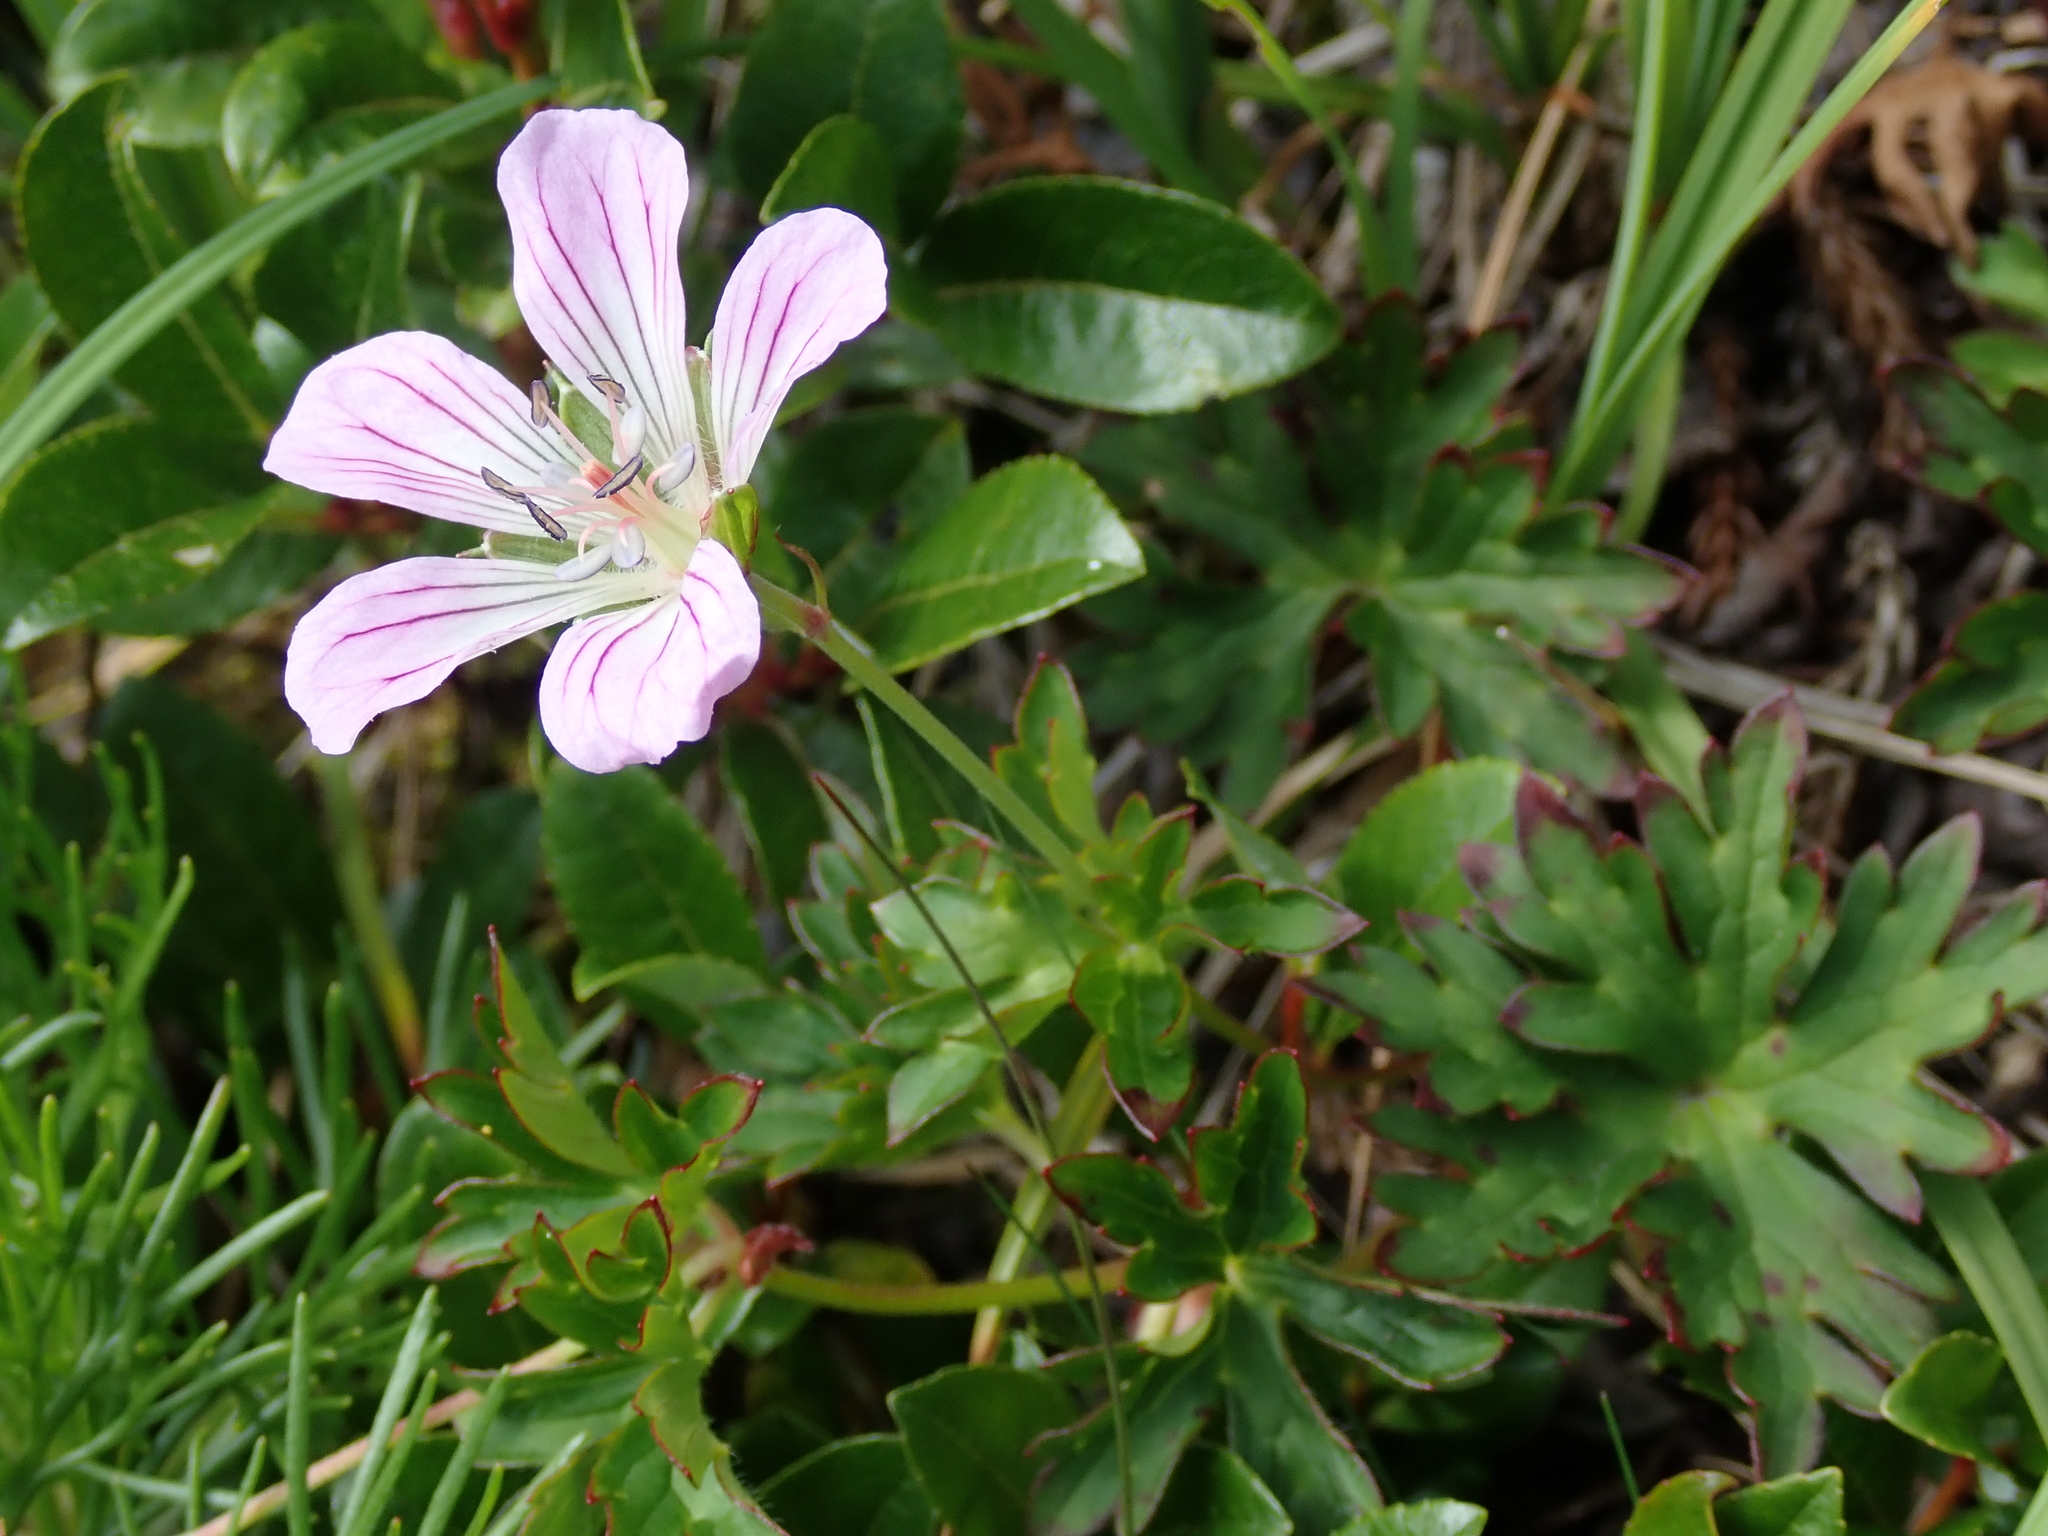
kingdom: Plantae
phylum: Tracheophyta
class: Magnoliopsida
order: Geraniales
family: Geraniaceae
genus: Geranium
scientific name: Geranium hayatanum
